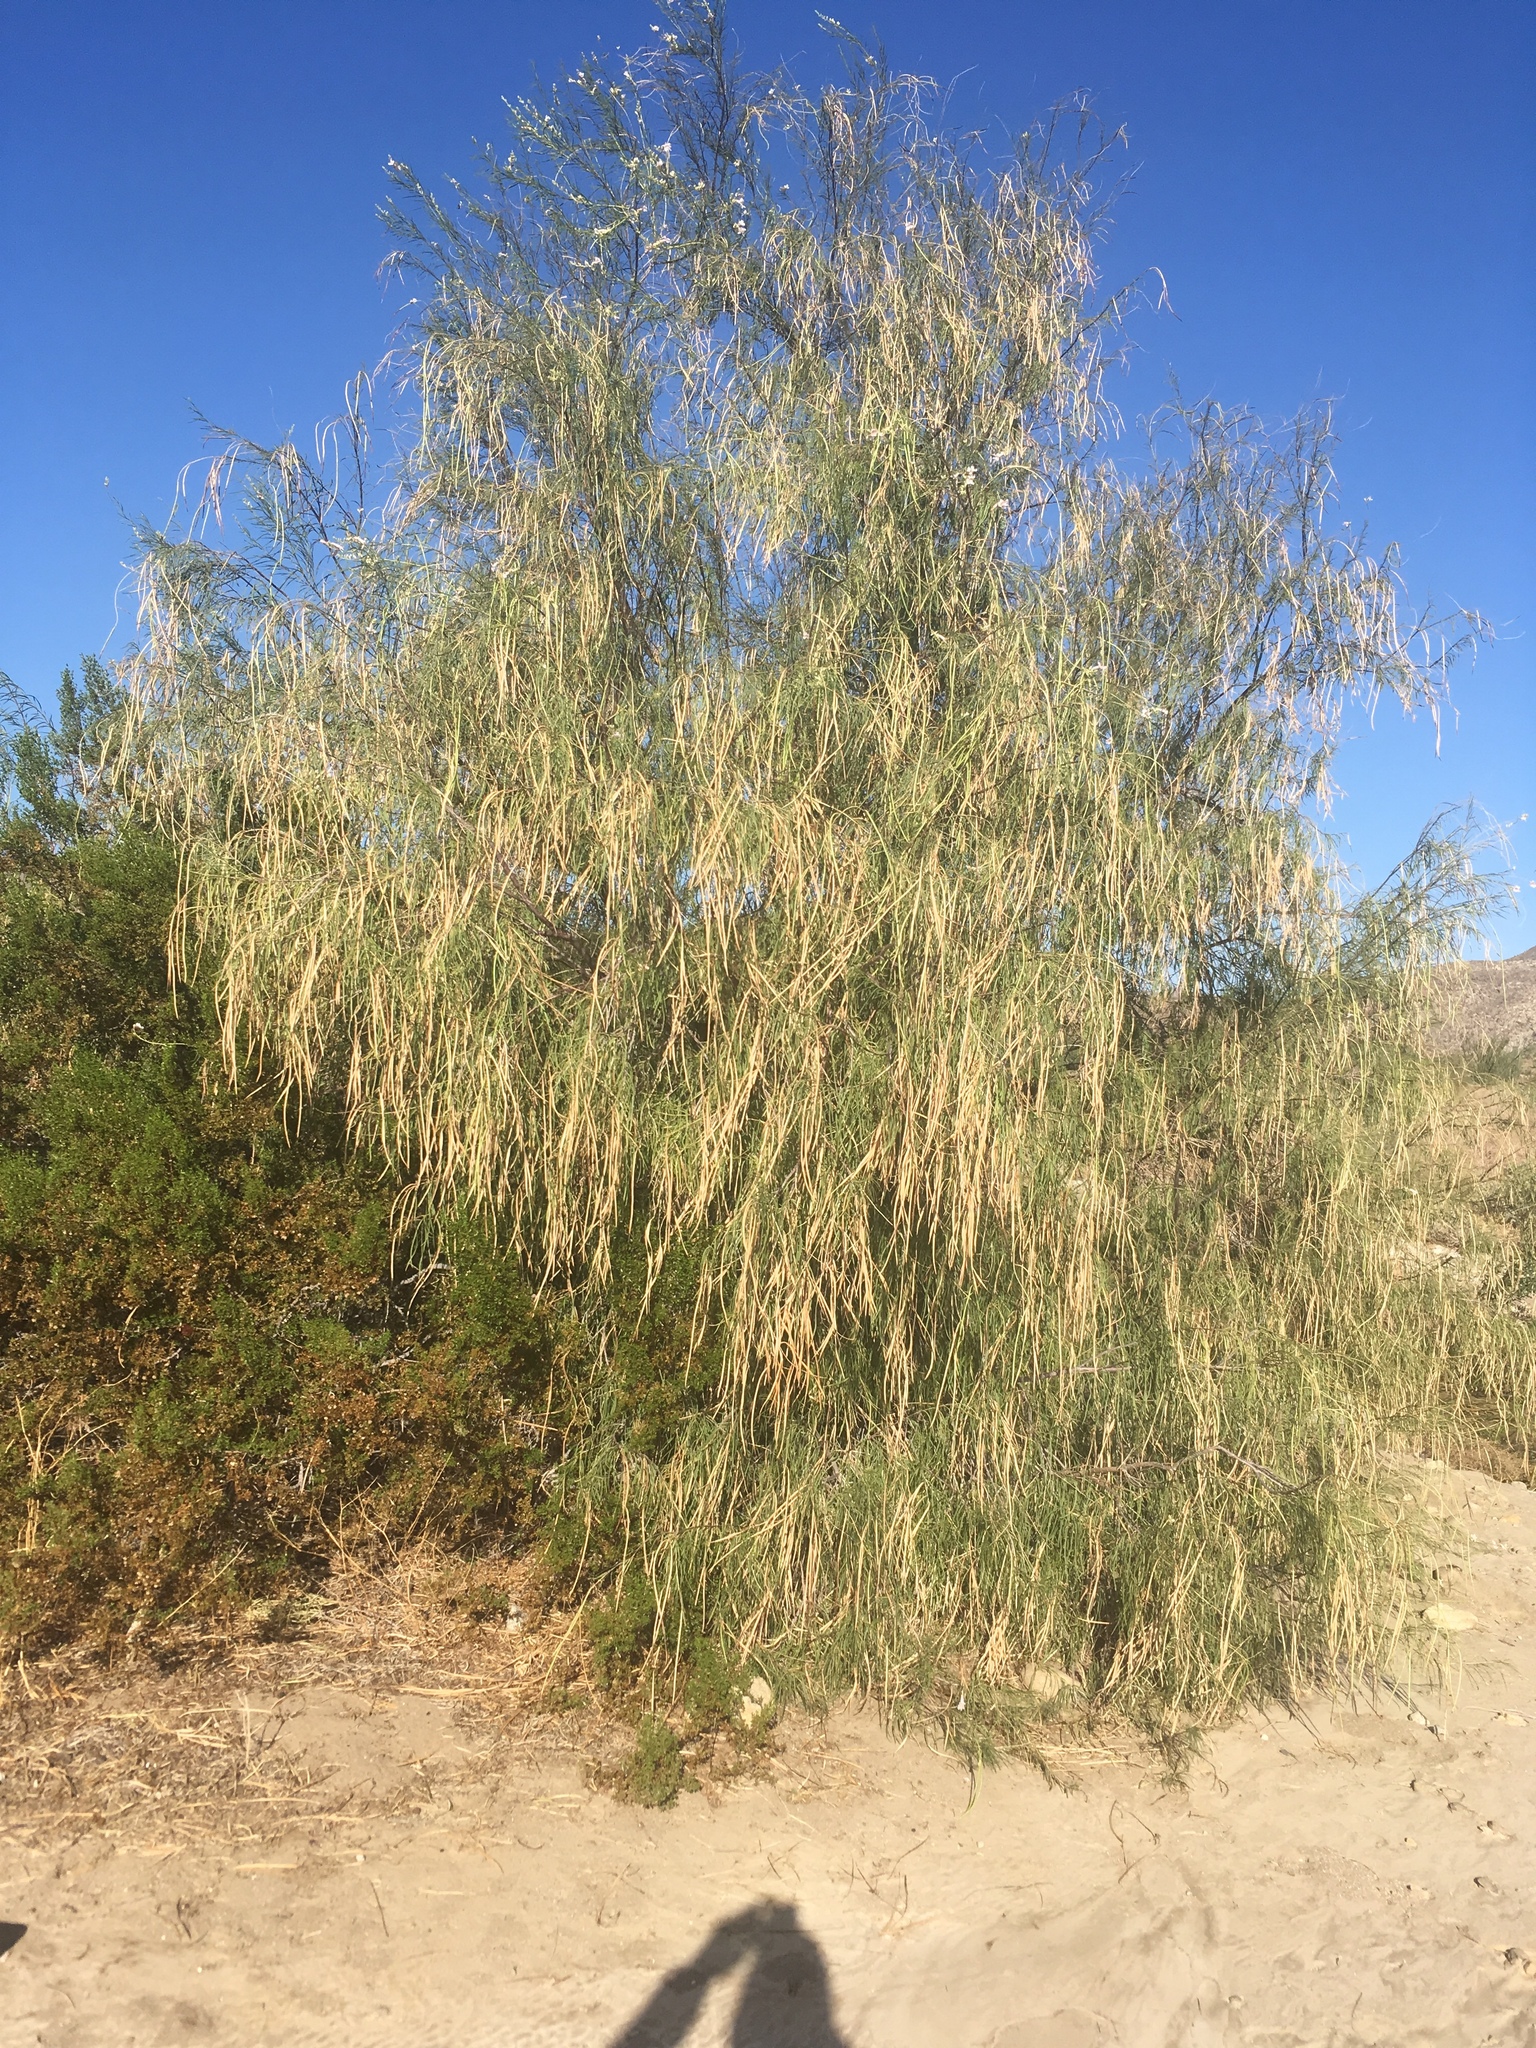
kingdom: Plantae
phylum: Tracheophyta
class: Magnoliopsida
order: Lamiales
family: Bignoniaceae
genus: Chilopsis
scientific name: Chilopsis linearis
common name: Desert-willow
